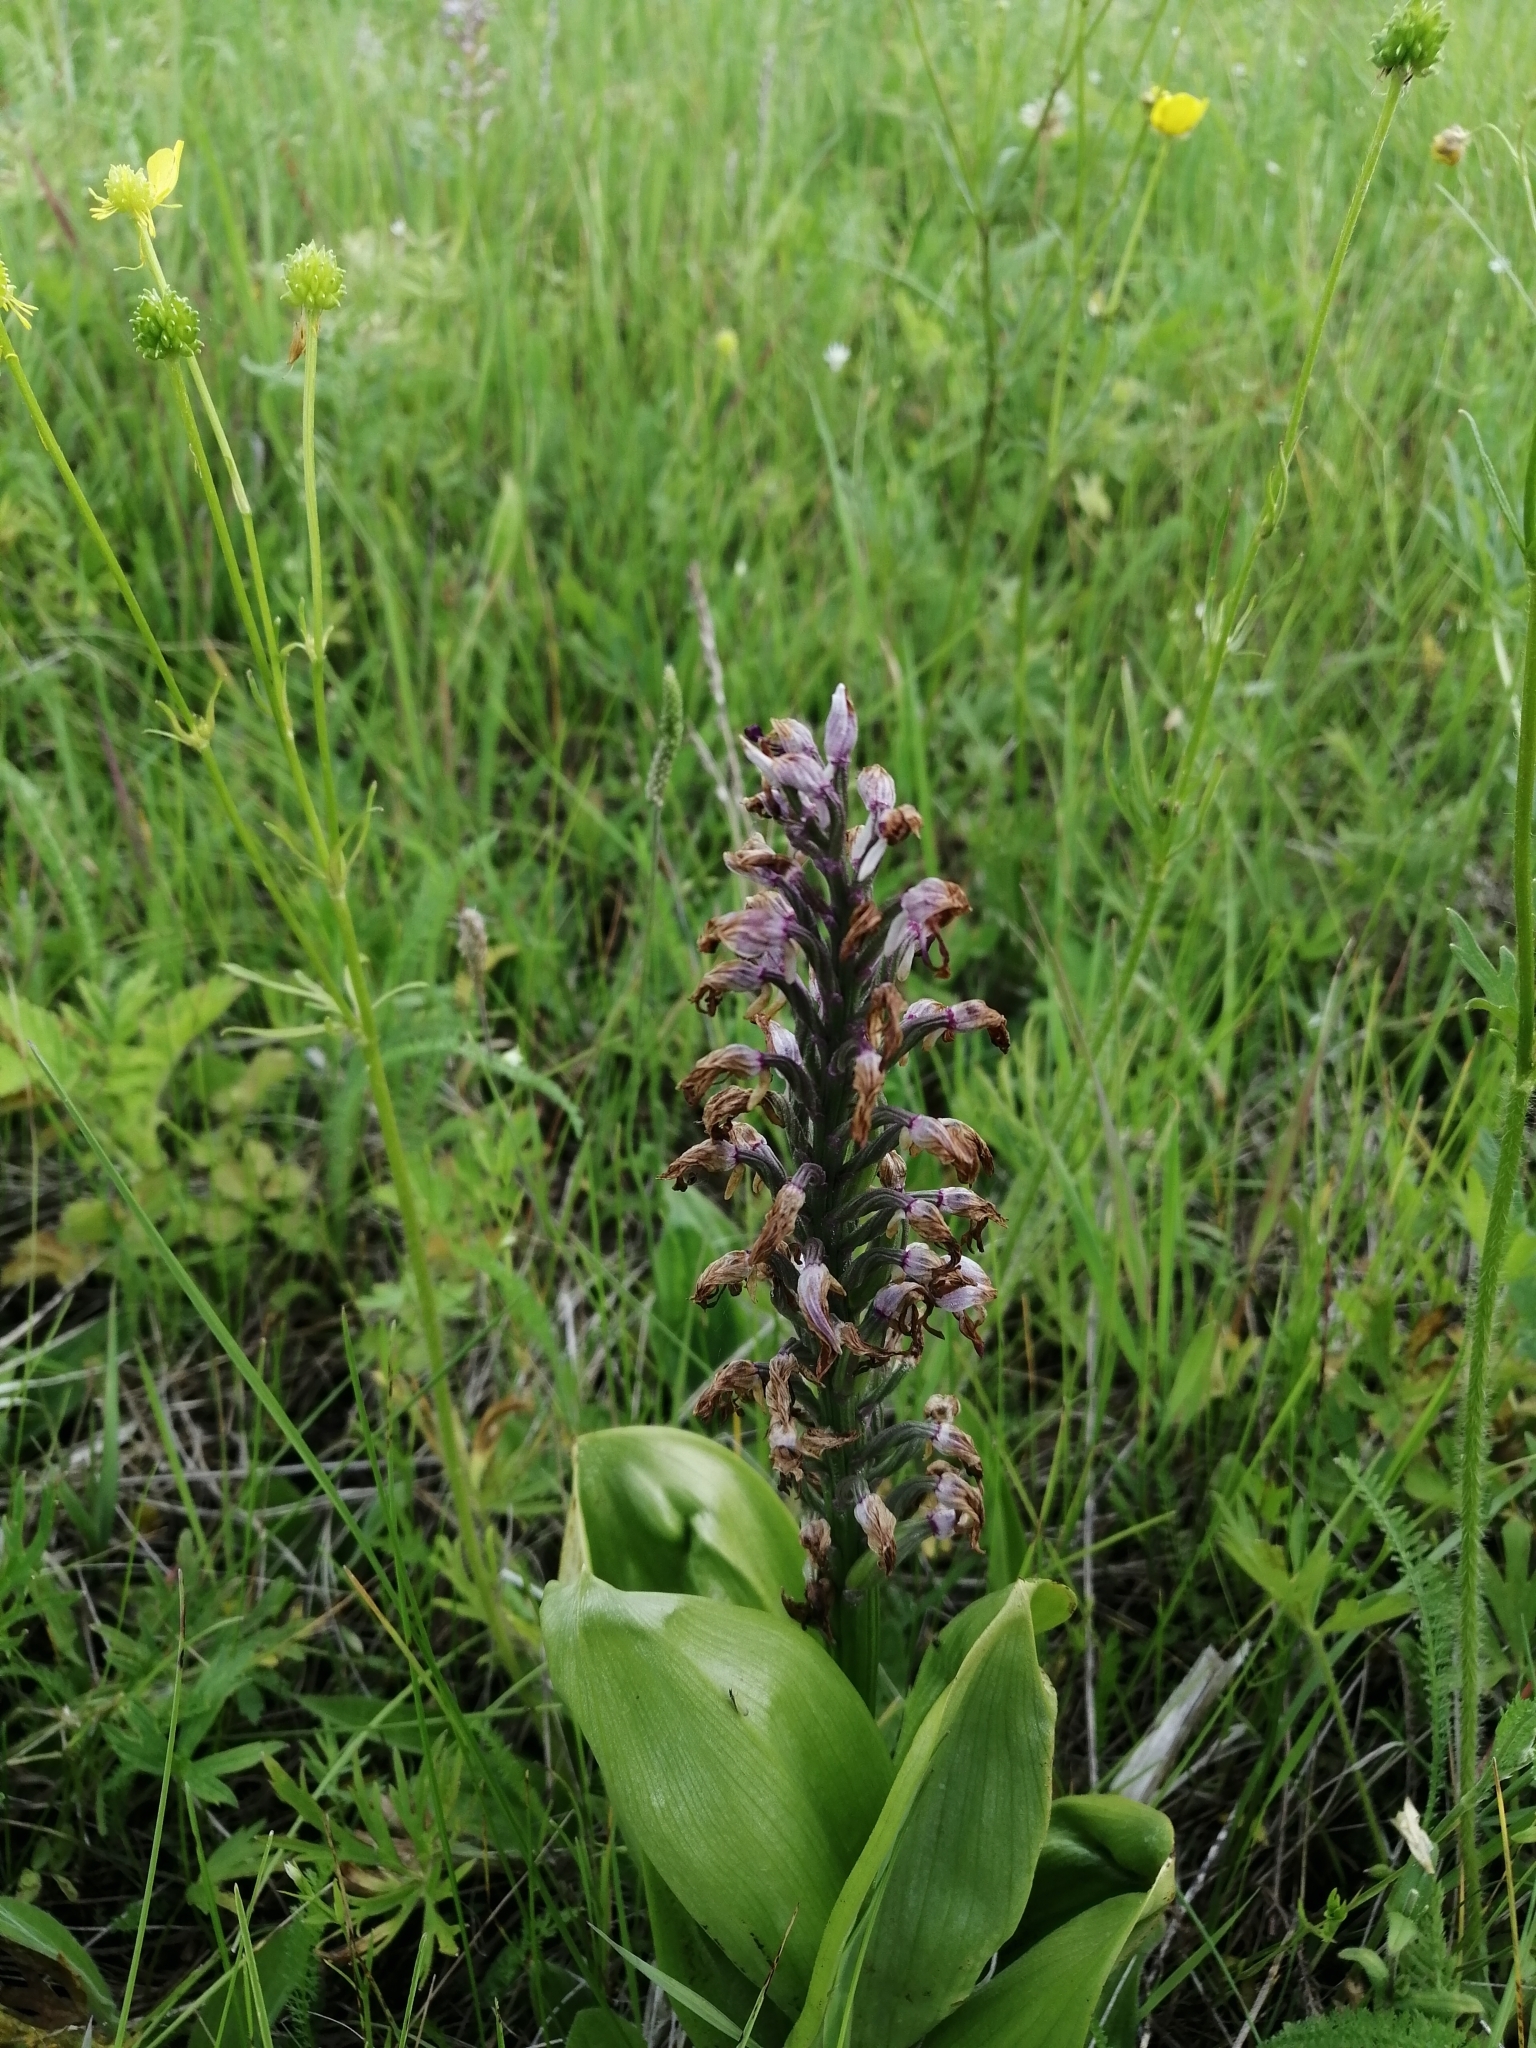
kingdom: Plantae
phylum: Tracheophyta
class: Liliopsida
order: Asparagales
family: Orchidaceae
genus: Orchis
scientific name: Orchis militaris
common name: Military orchid
